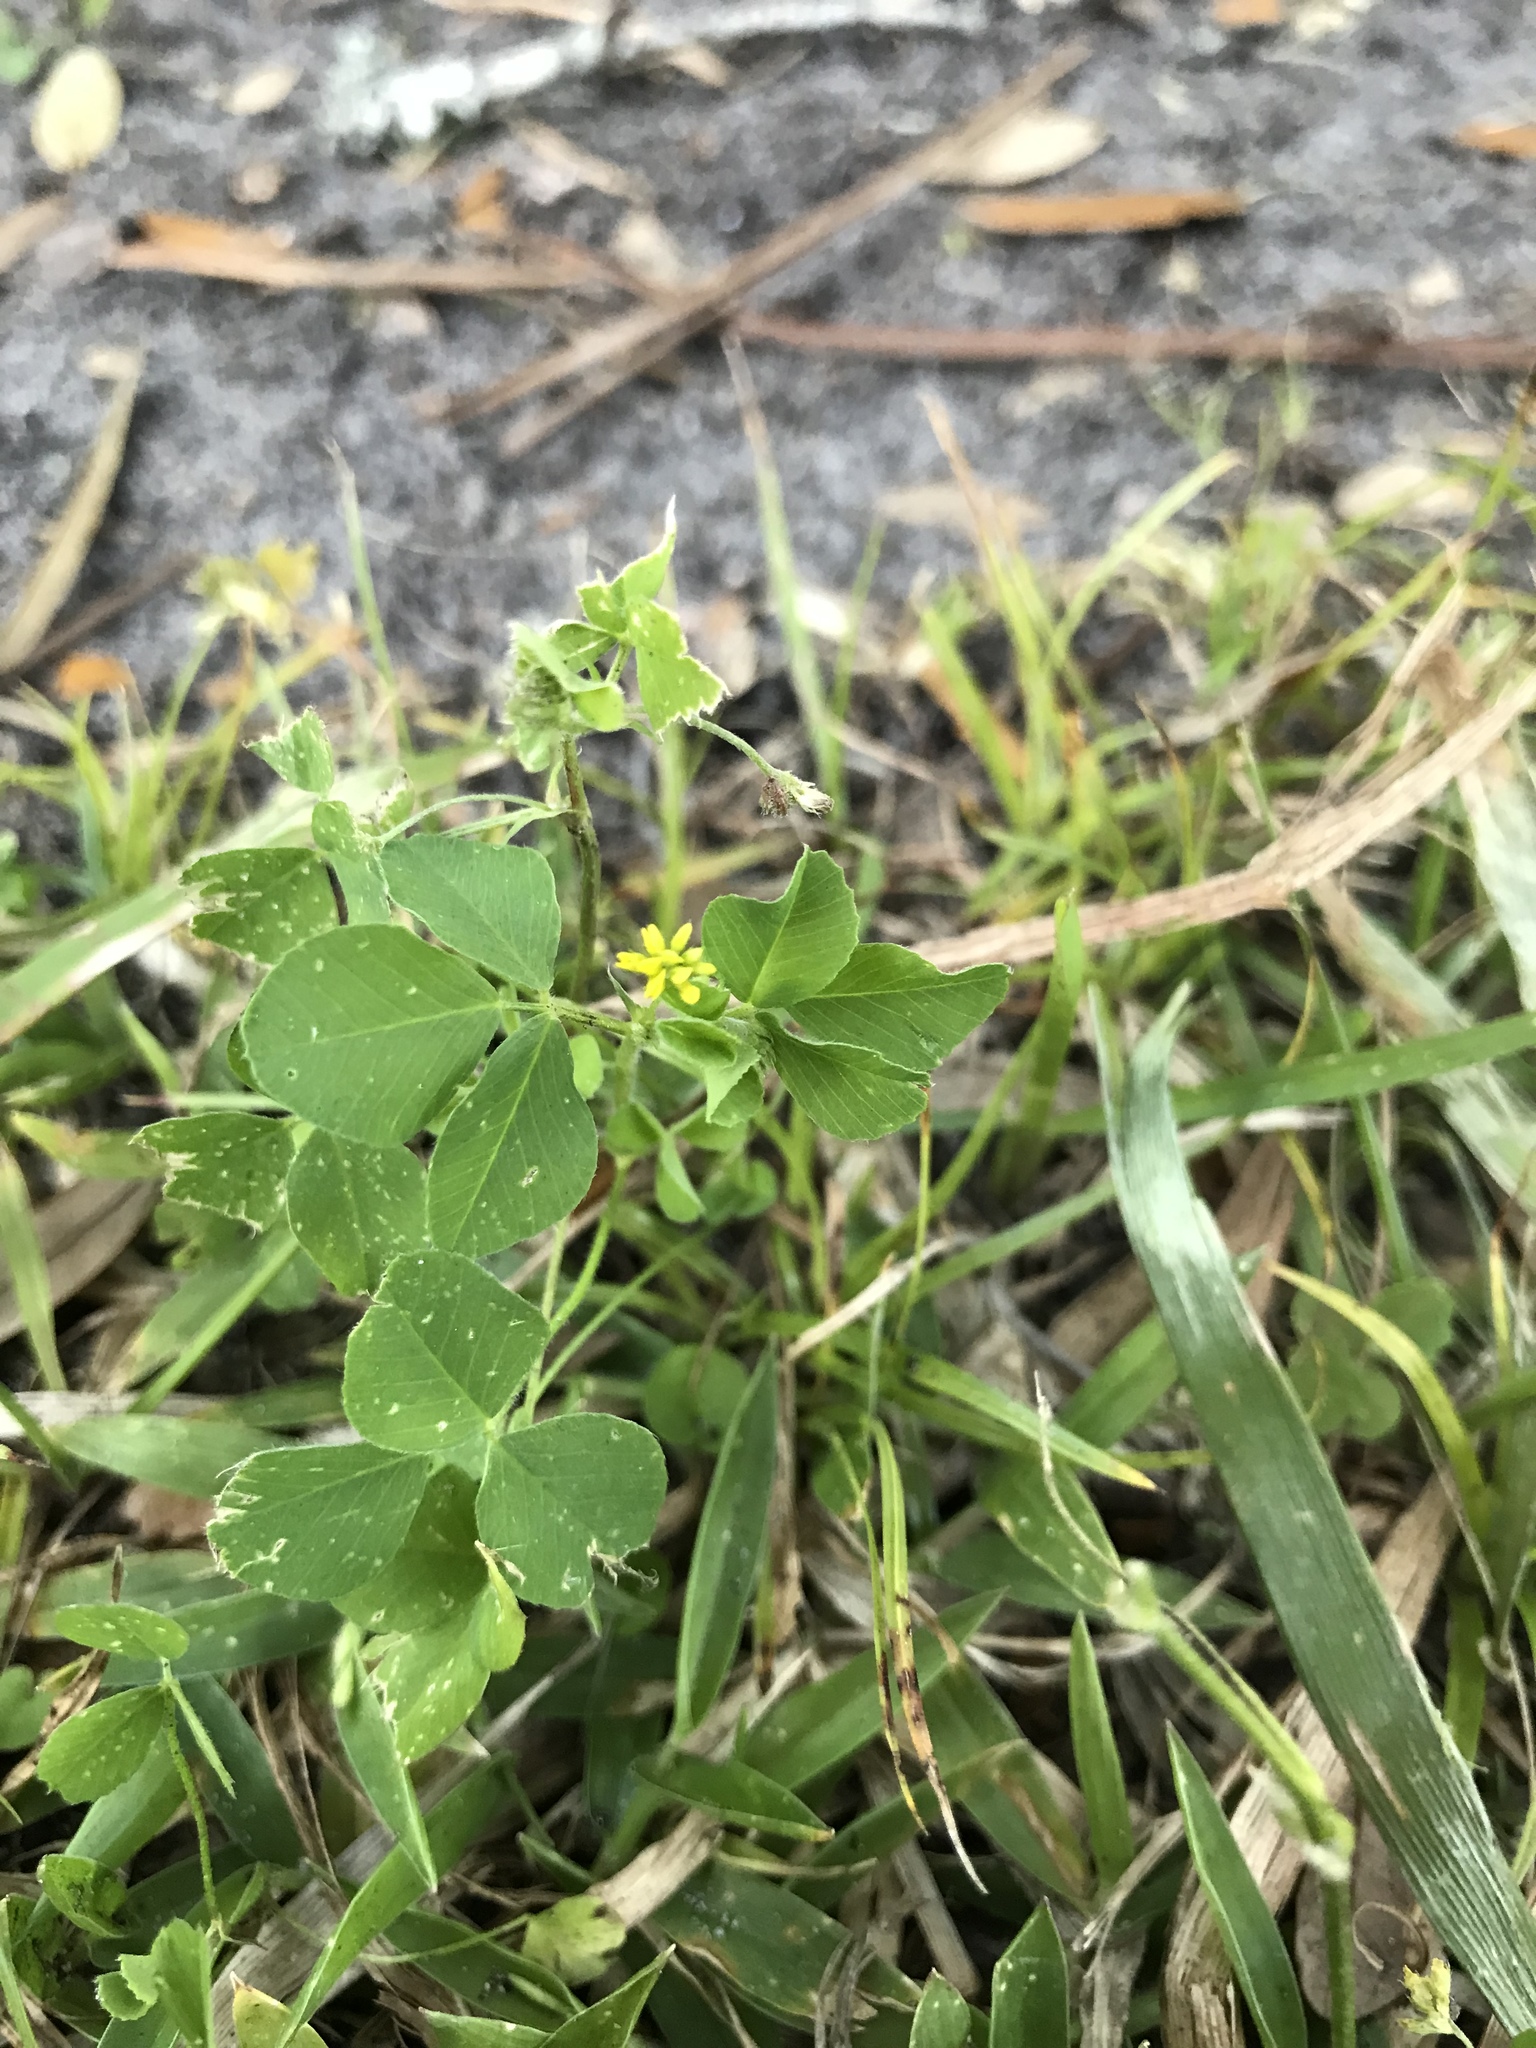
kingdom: Plantae
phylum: Tracheophyta
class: Magnoliopsida
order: Fabales
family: Fabaceae
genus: Medicago
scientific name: Medicago lupulina
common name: Black medick
